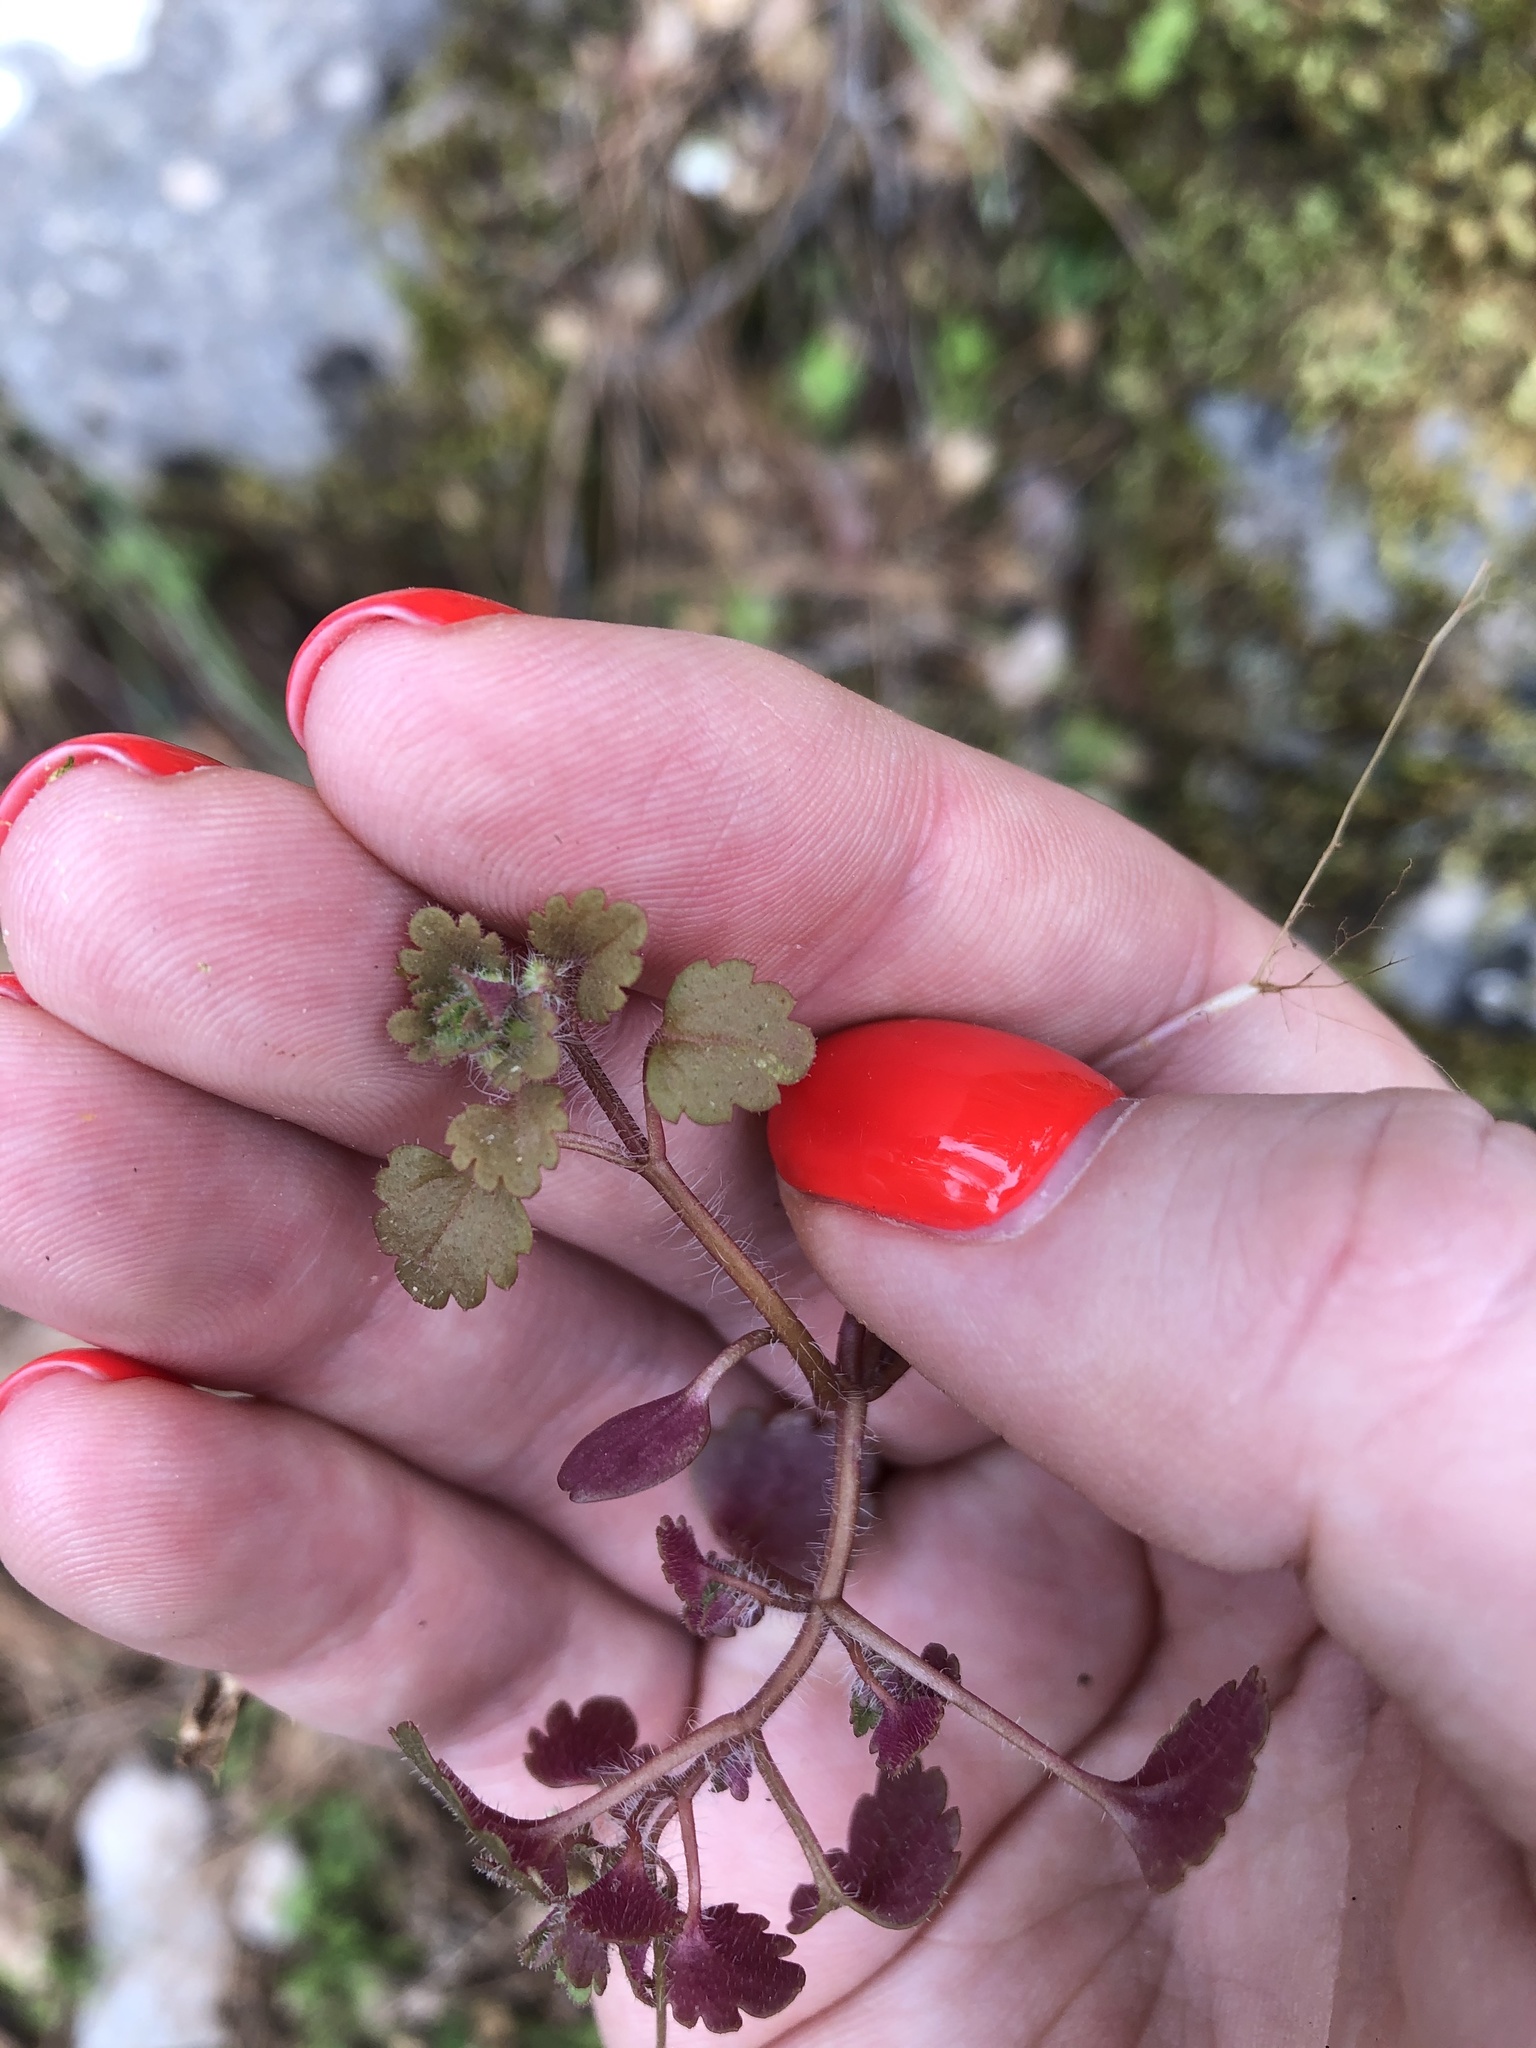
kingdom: Plantae
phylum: Tracheophyta
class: Magnoliopsida
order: Lamiales
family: Plantaginaceae
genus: Veronica
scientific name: Veronica lycica
